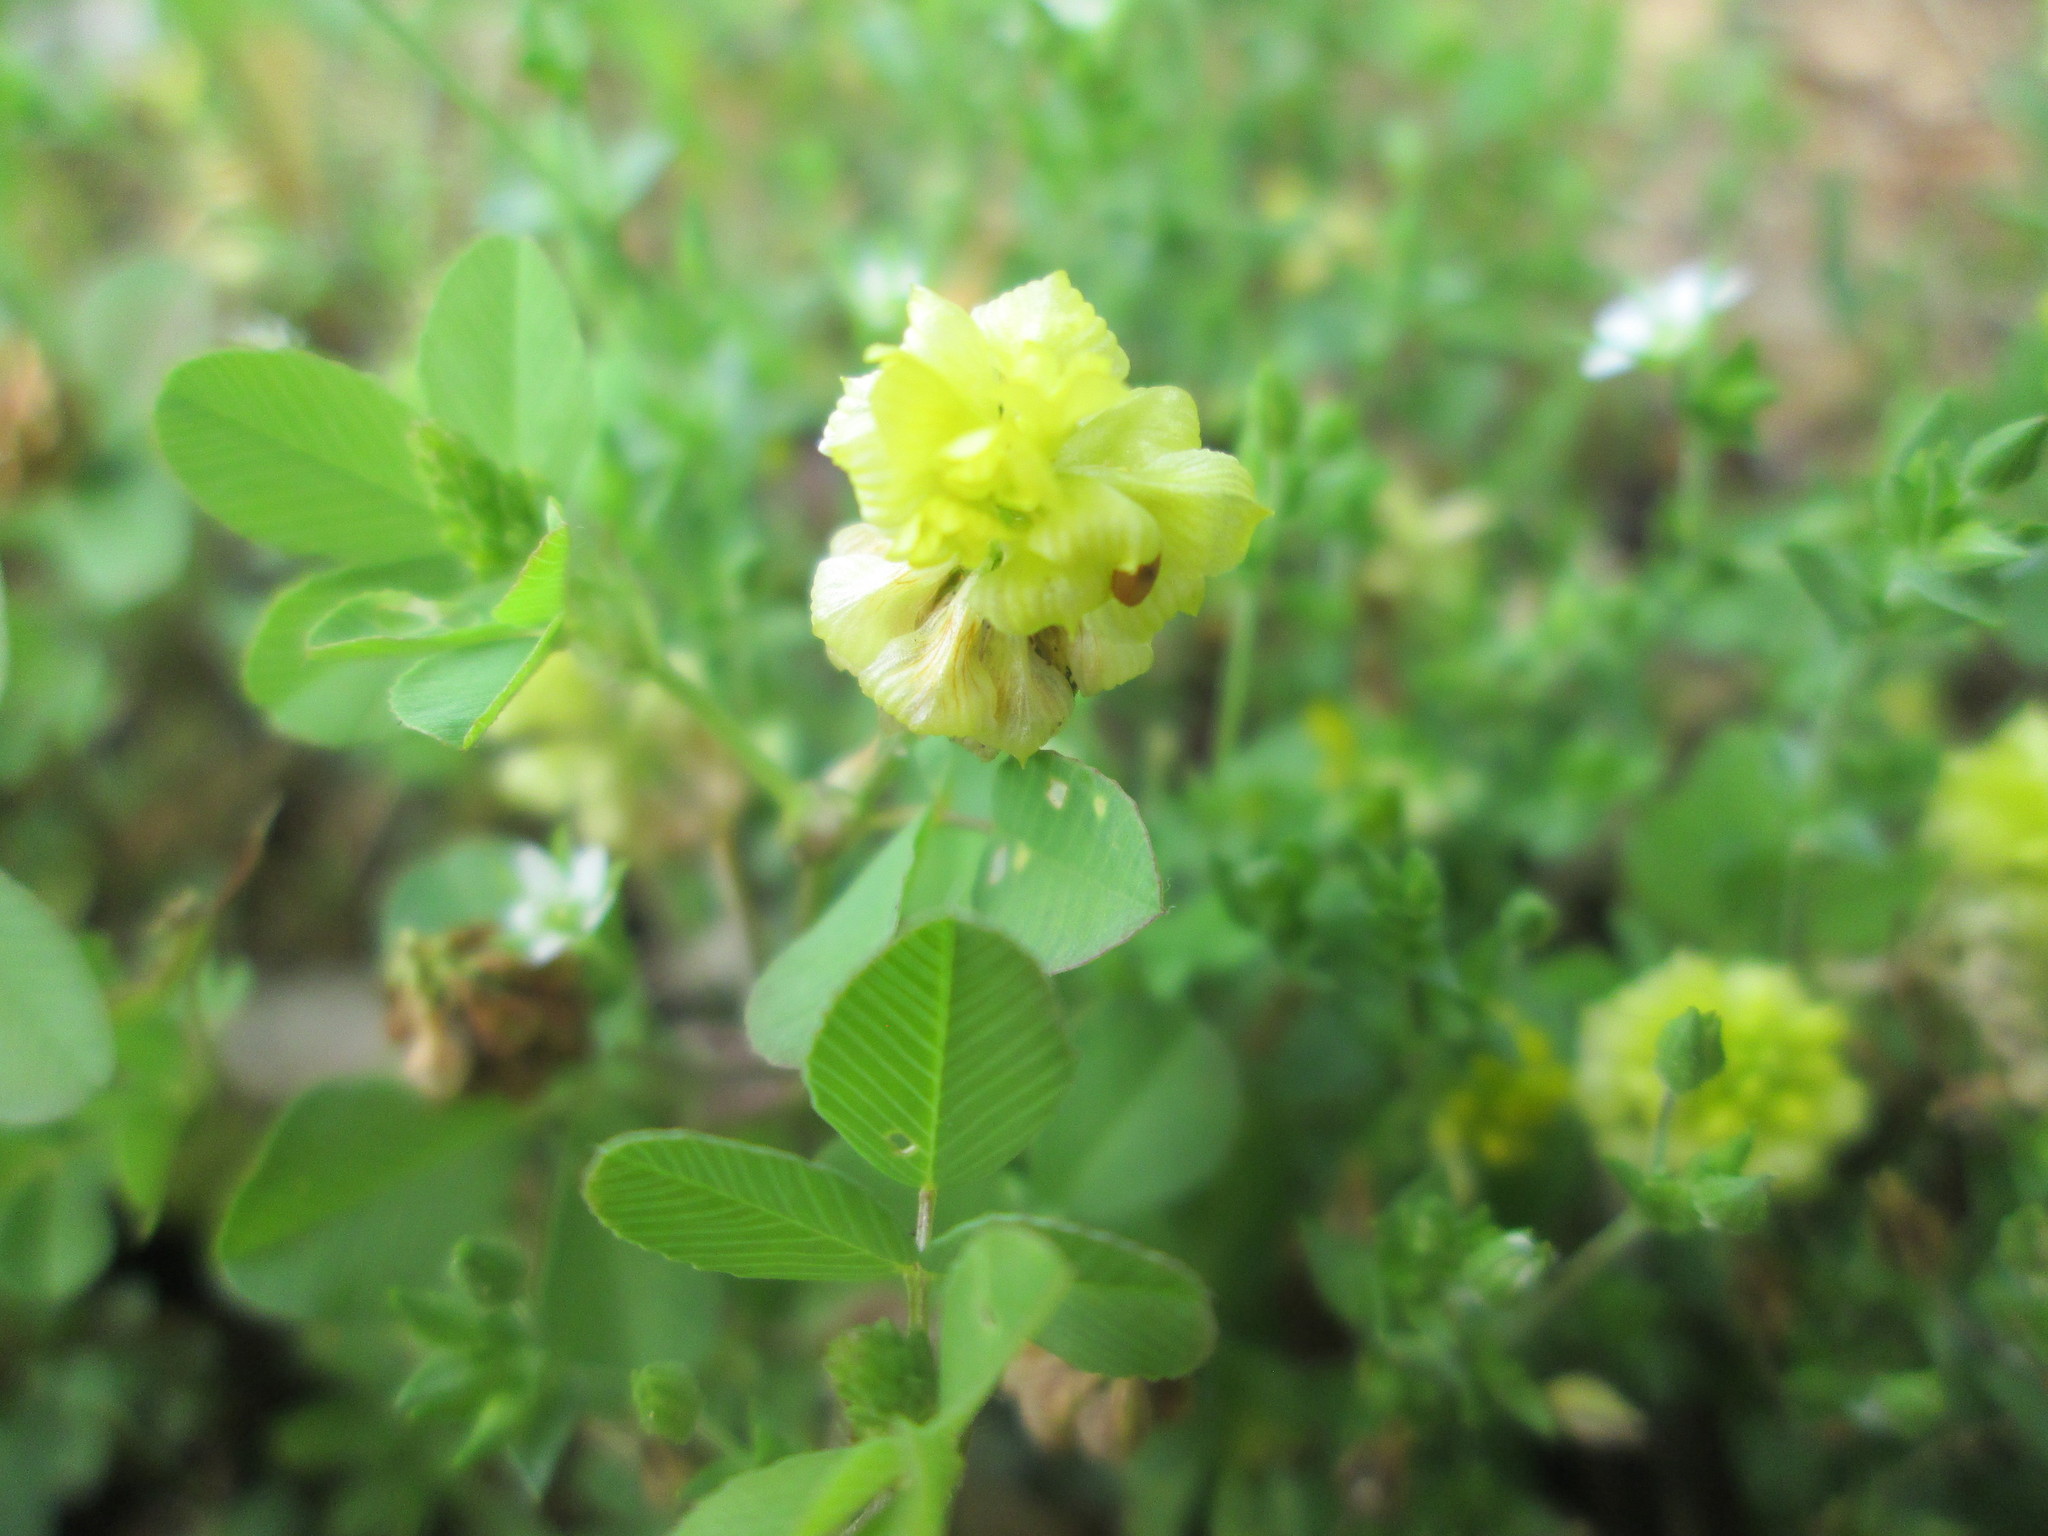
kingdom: Plantae
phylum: Tracheophyta
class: Magnoliopsida
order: Fabales
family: Fabaceae
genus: Trifolium
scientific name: Trifolium campestre
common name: Field clover
